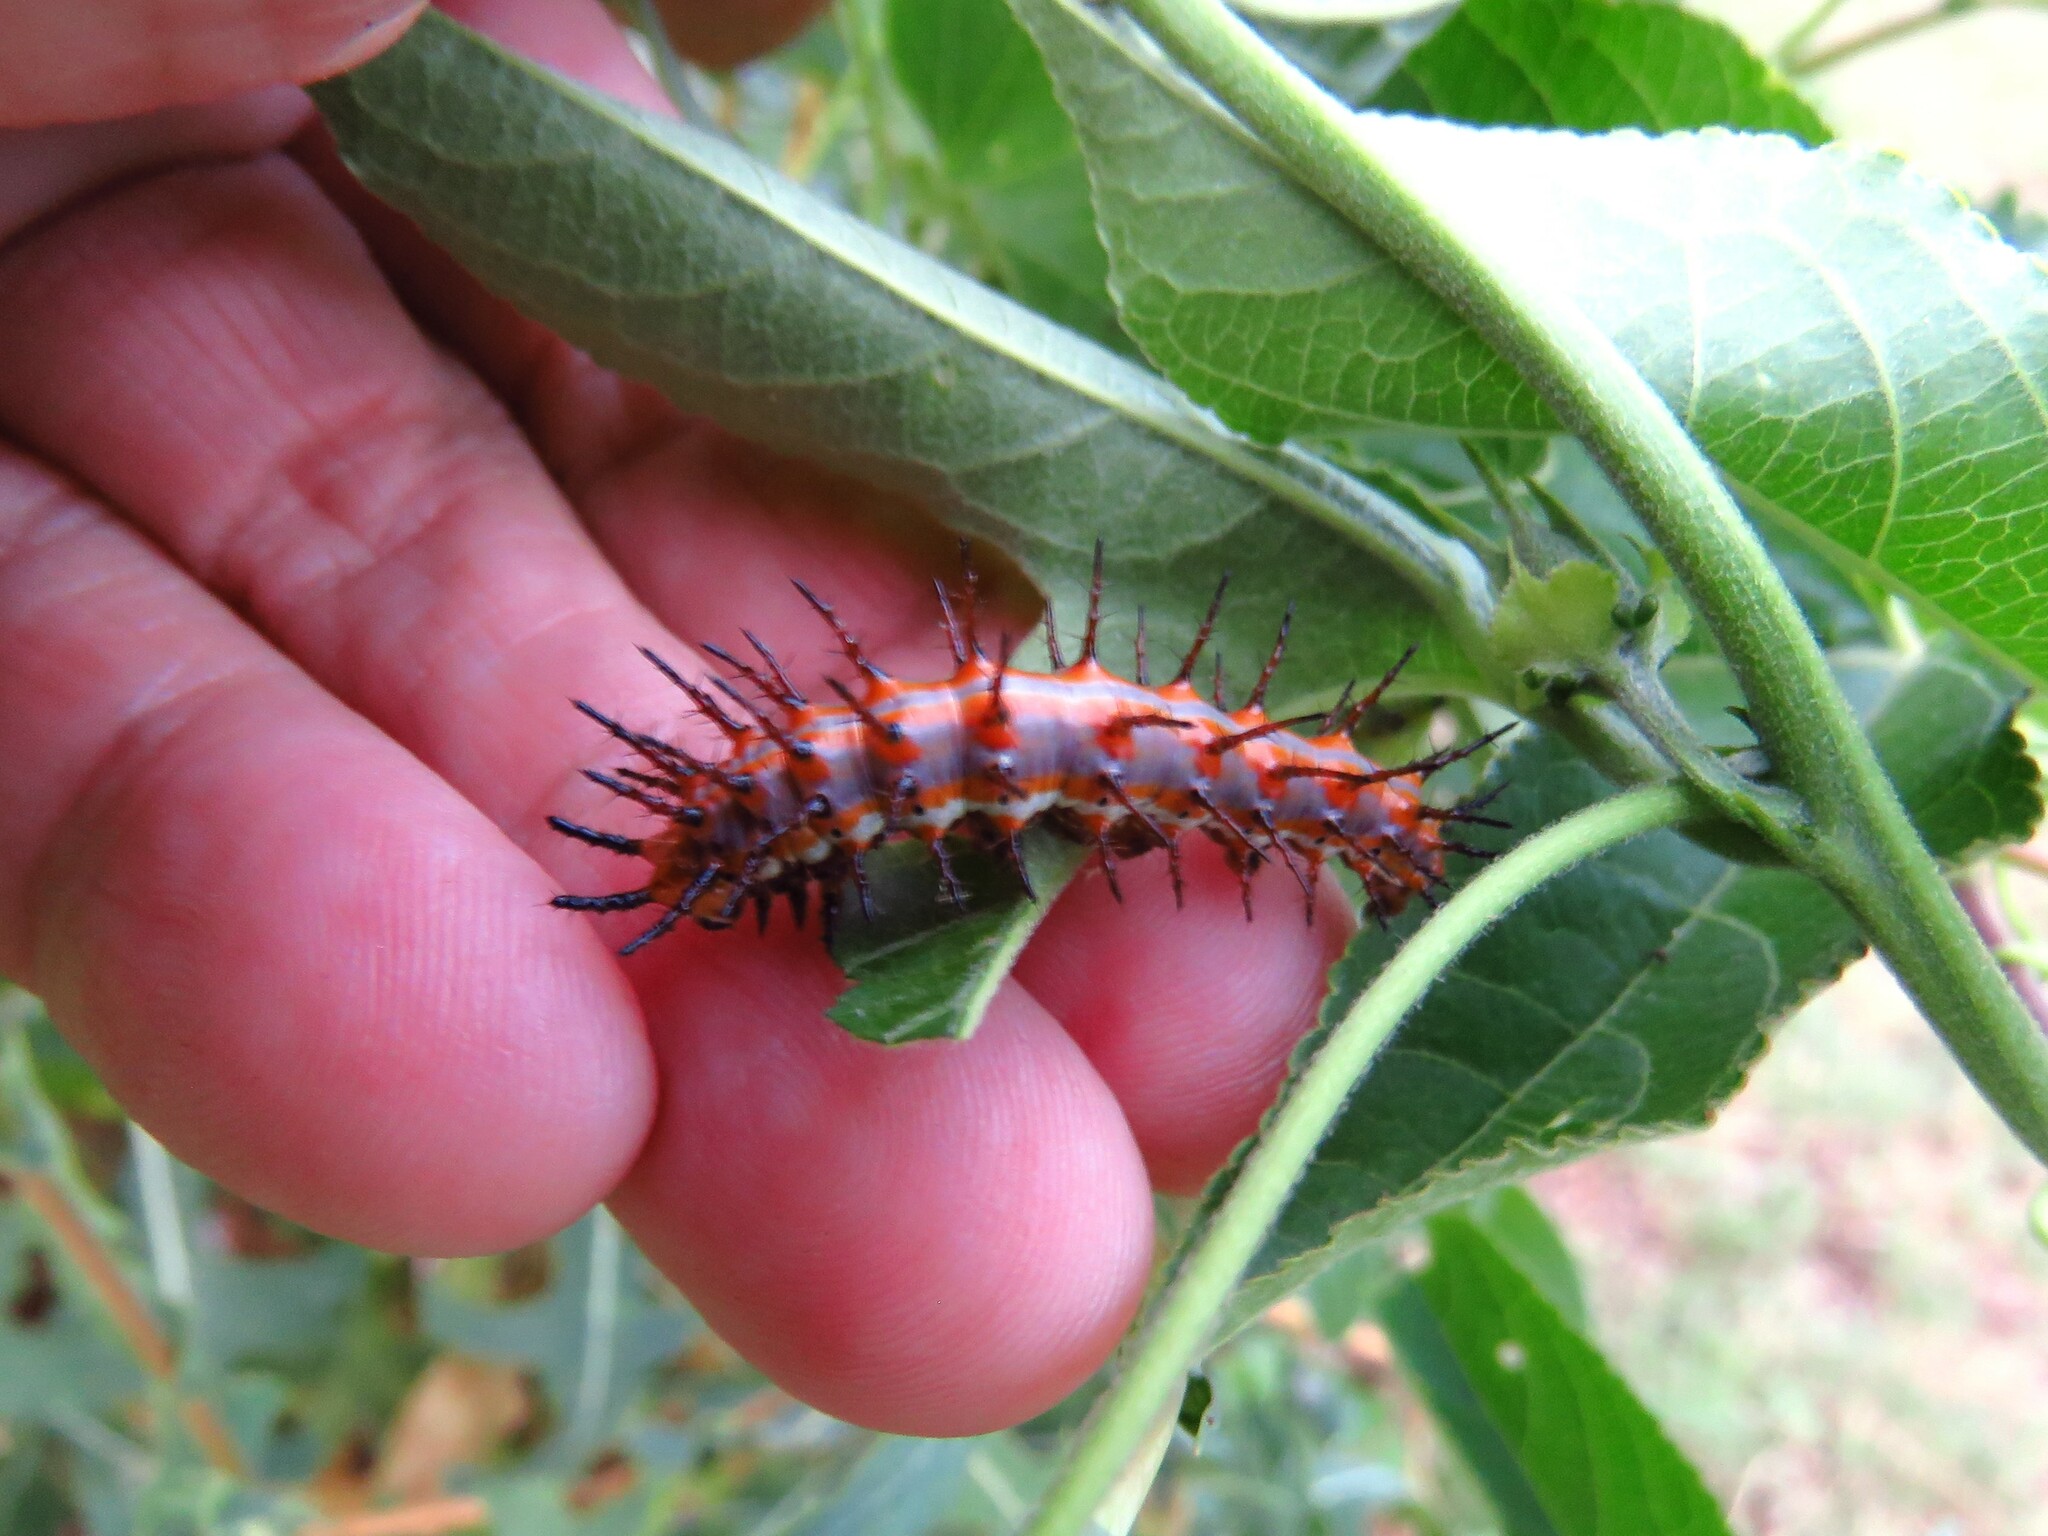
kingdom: Animalia
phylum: Arthropoda
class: Insecta
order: Lepidoptera
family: Nymphalidae
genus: Dione
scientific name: Dione vanillae
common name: Gulf fritillary
